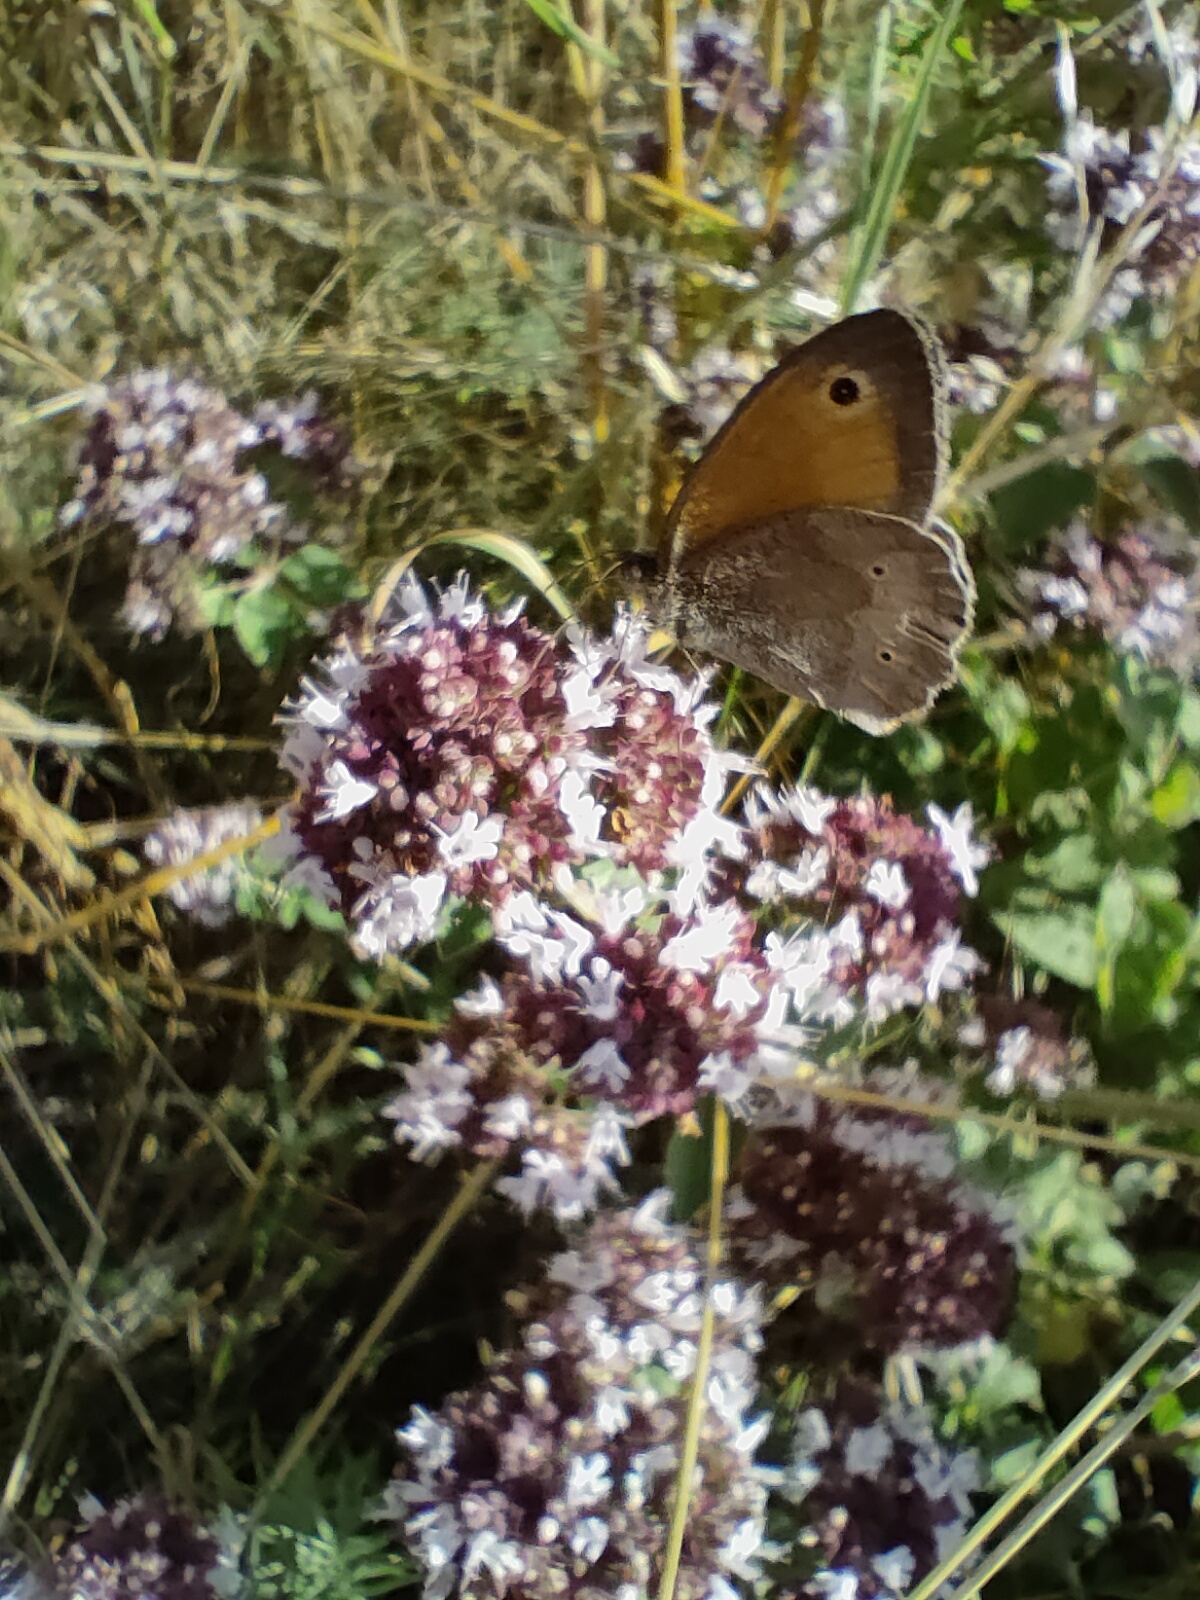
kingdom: Animalia
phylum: Arthropoda
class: Insecta
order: Lepidoptera
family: Nymphalidae
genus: Maniola
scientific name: Maniola jurtina
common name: Meadow brown
